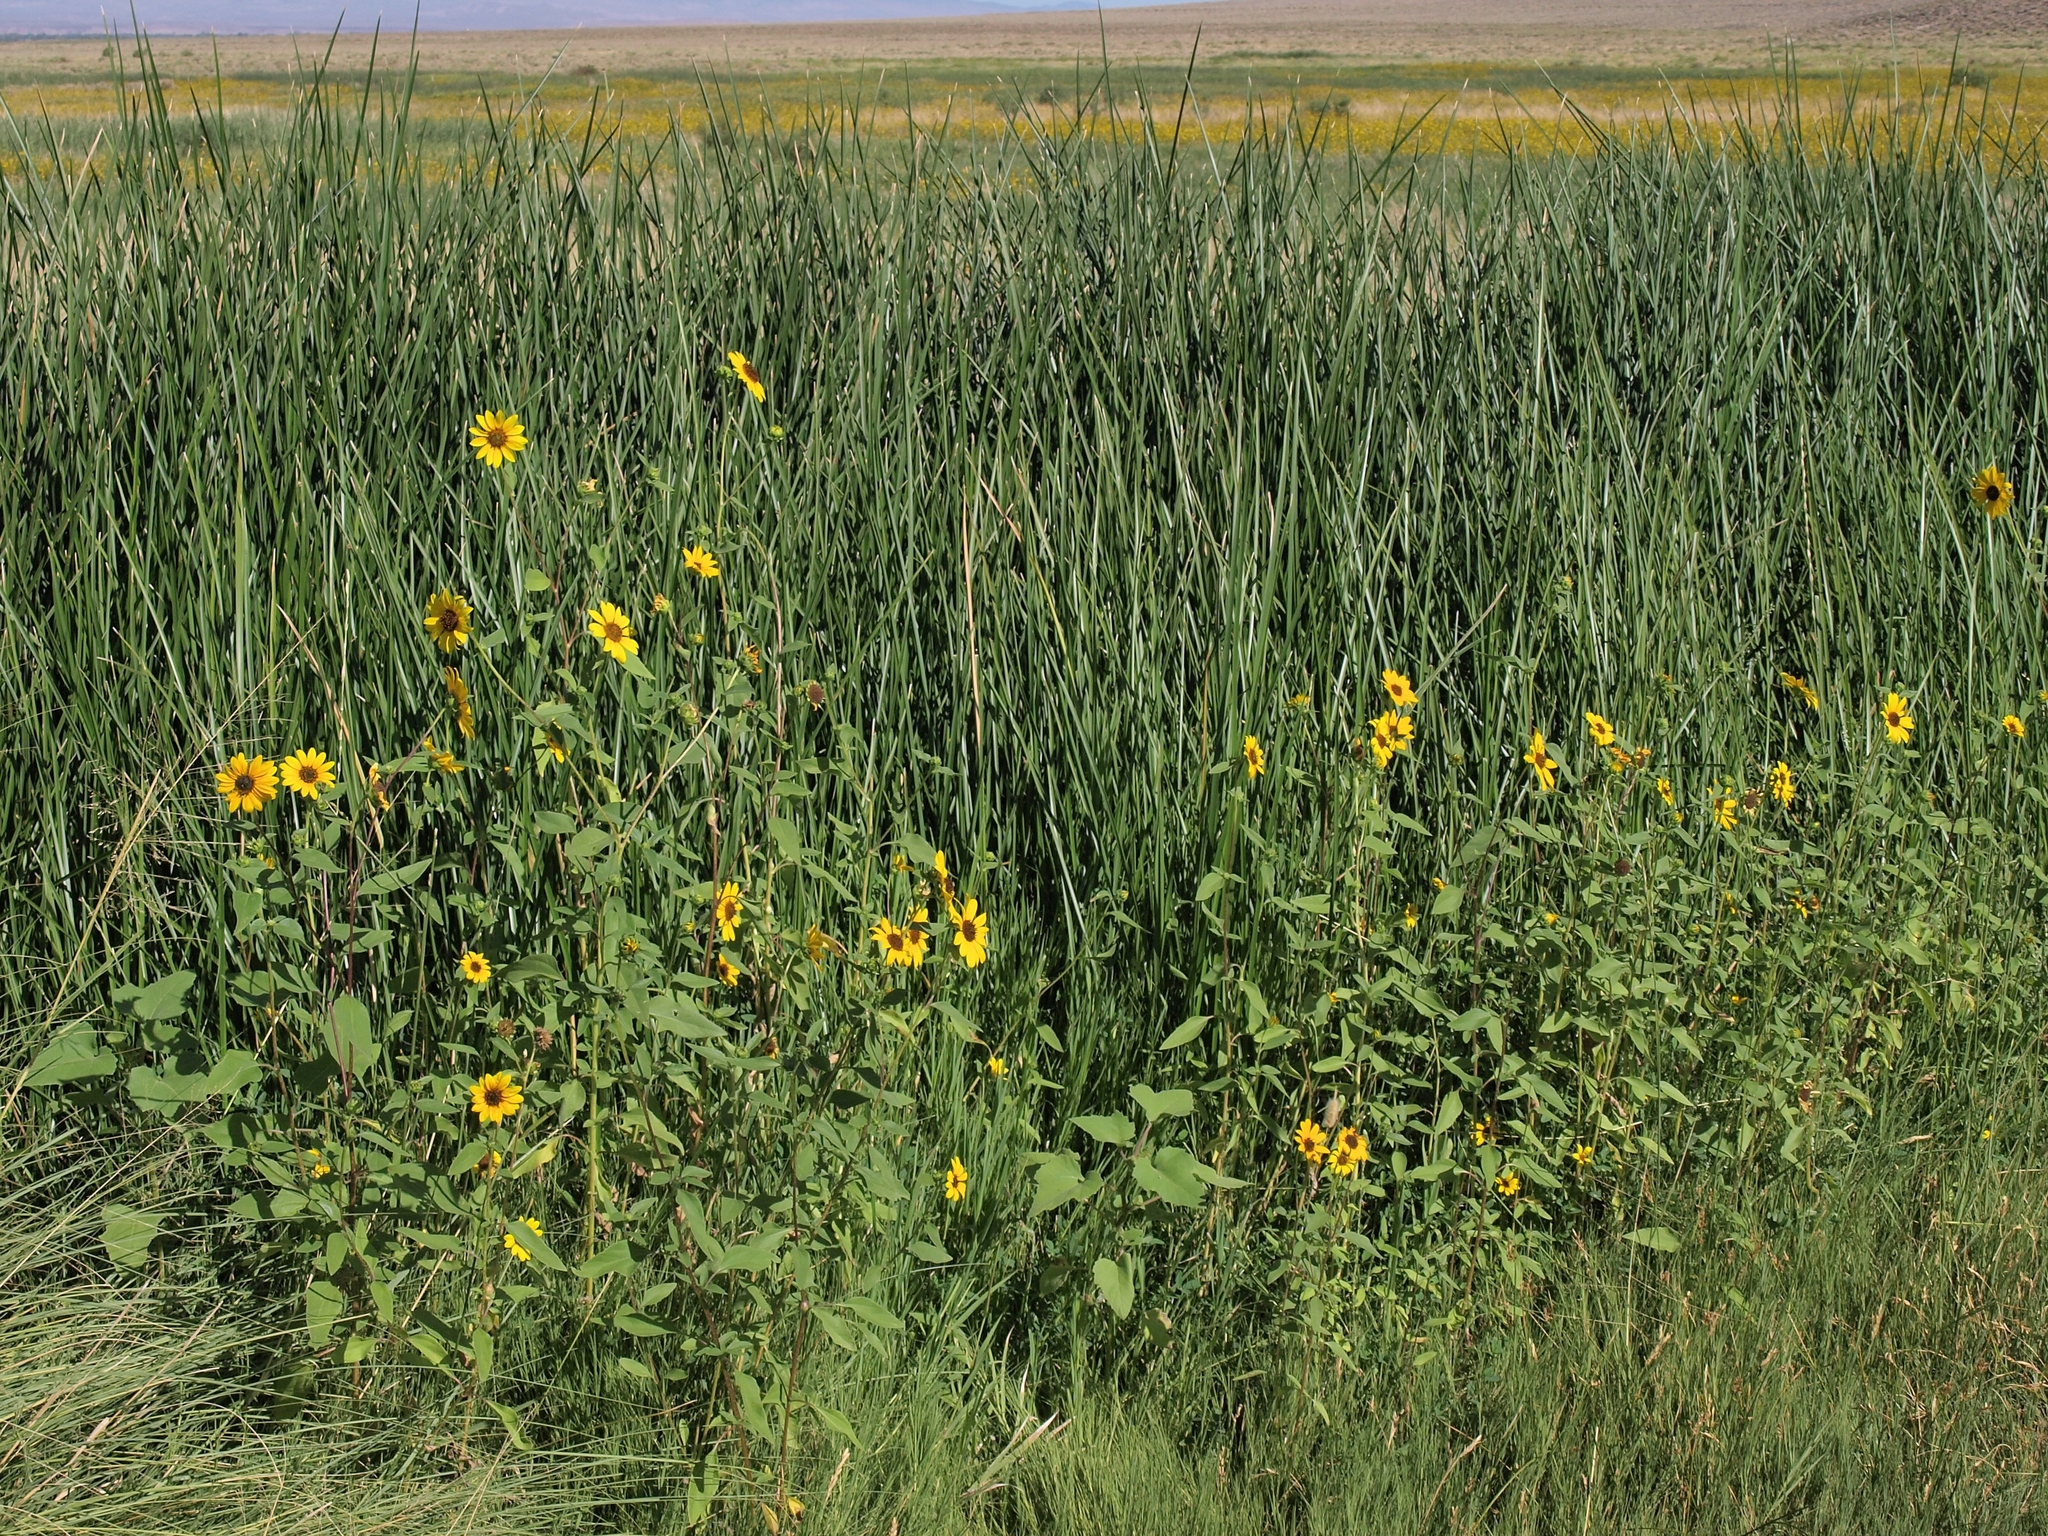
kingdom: Plantae
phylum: Tracheophyta
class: Magnoliopsida
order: Asterales
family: Asteraceae
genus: Helianthus
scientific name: Helianthus annuus
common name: Sunflower
